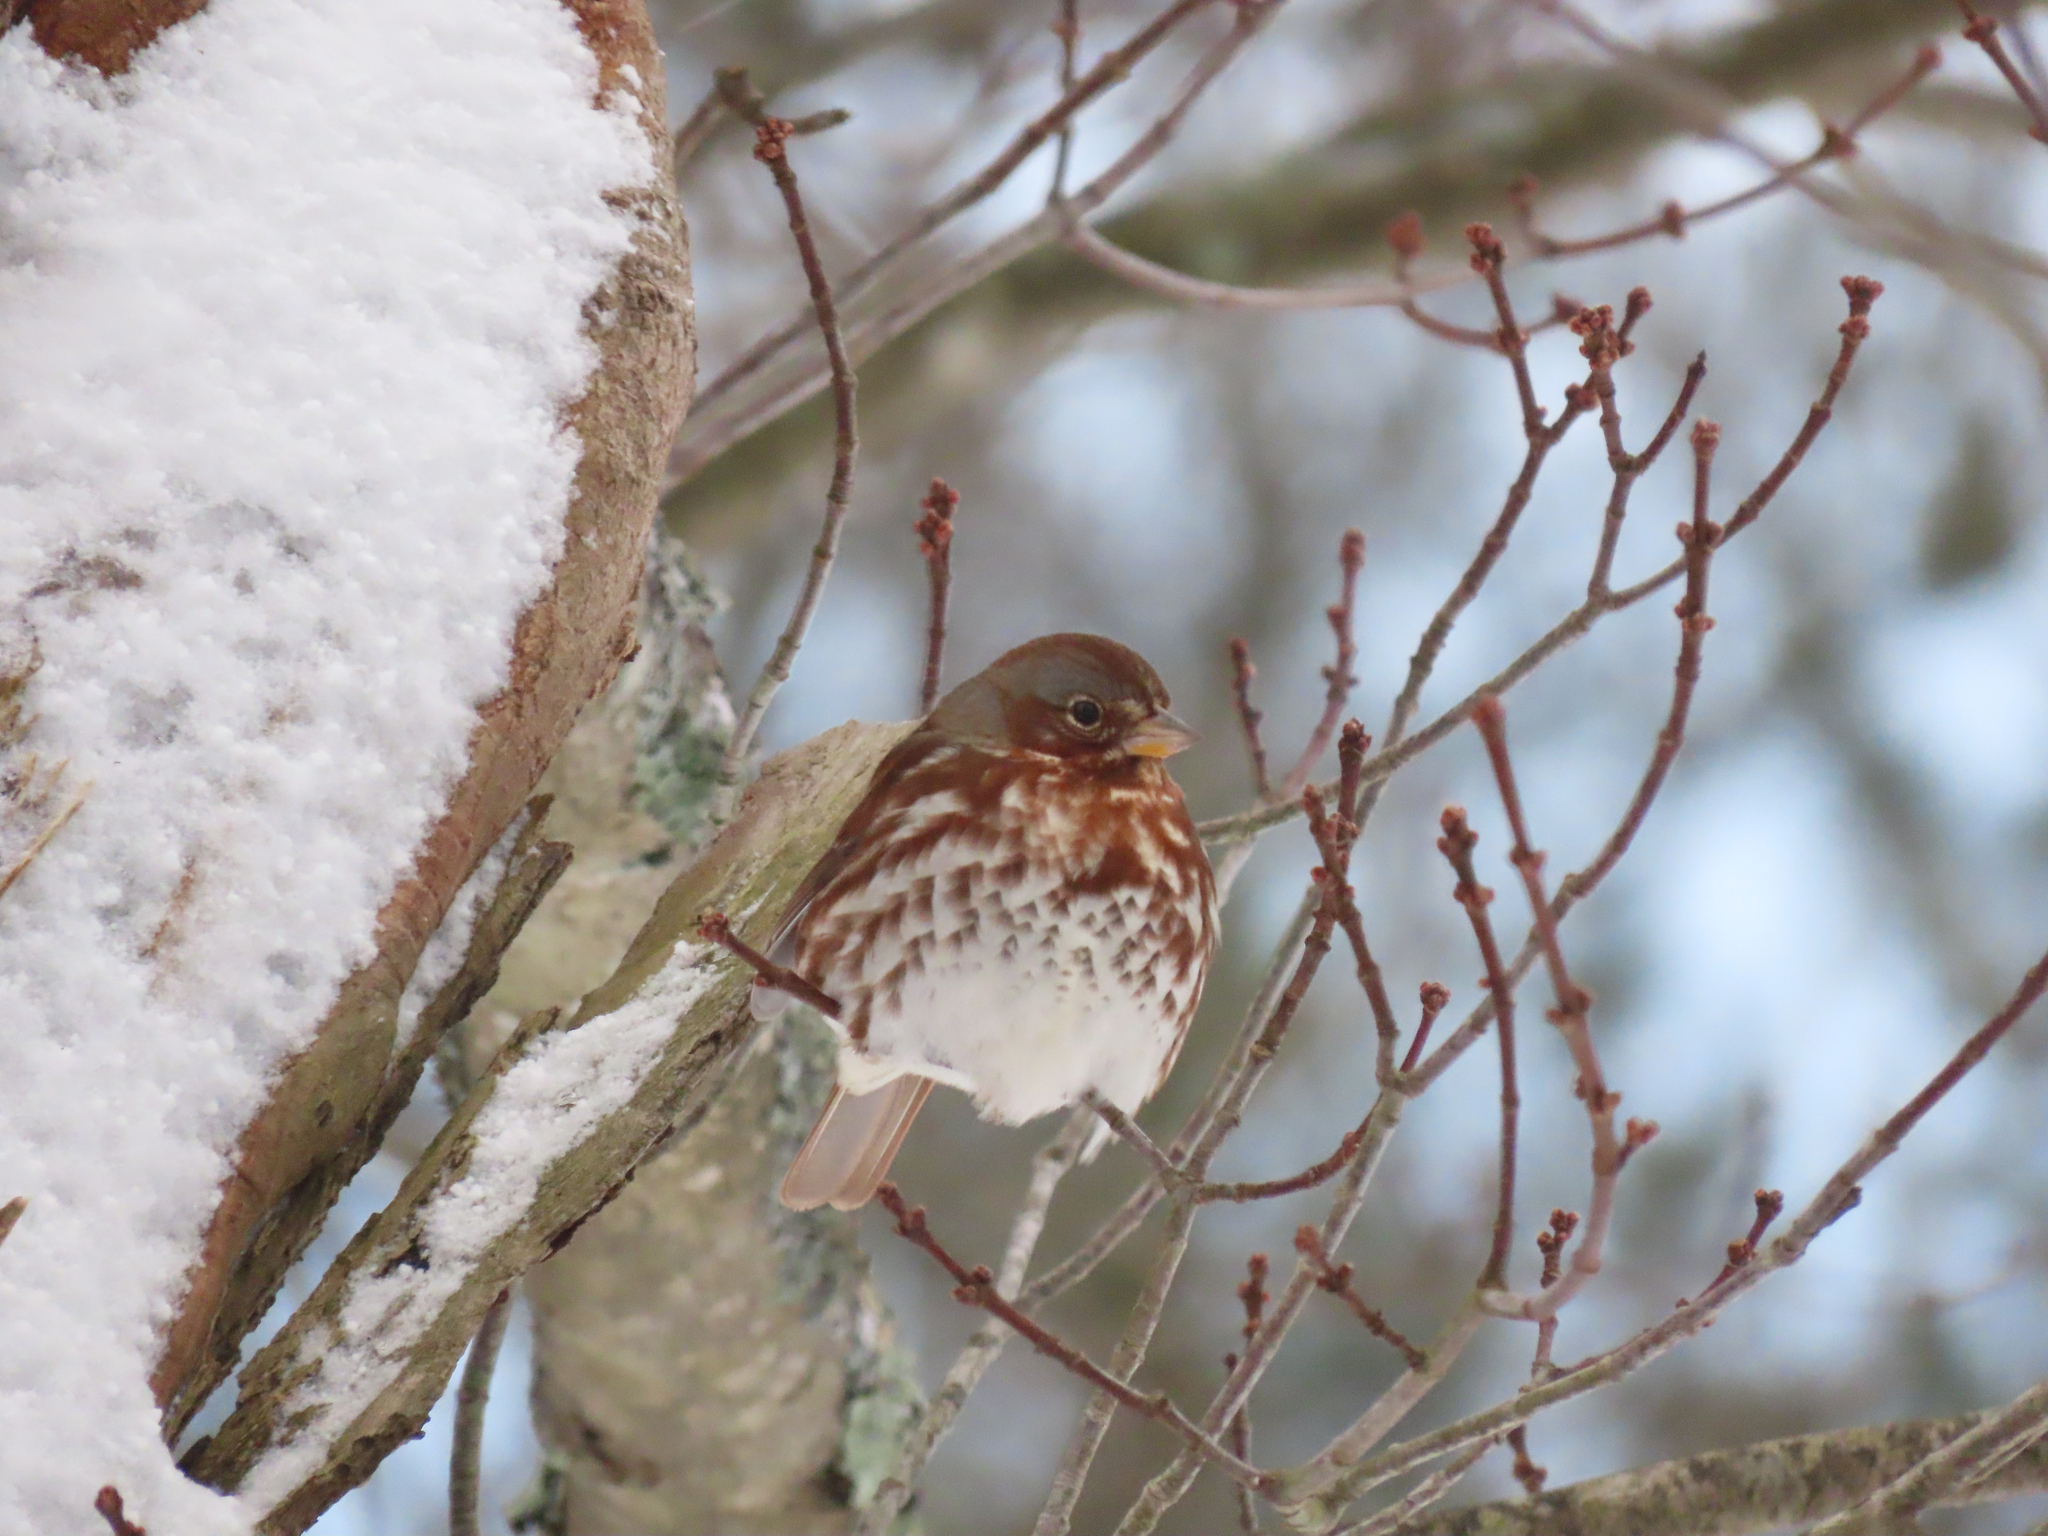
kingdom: Animalia
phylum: Chordata
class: Aves
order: Passeriformes
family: Passerellidae
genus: Passerella
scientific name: Passerella iliaca
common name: Fox sparrow
